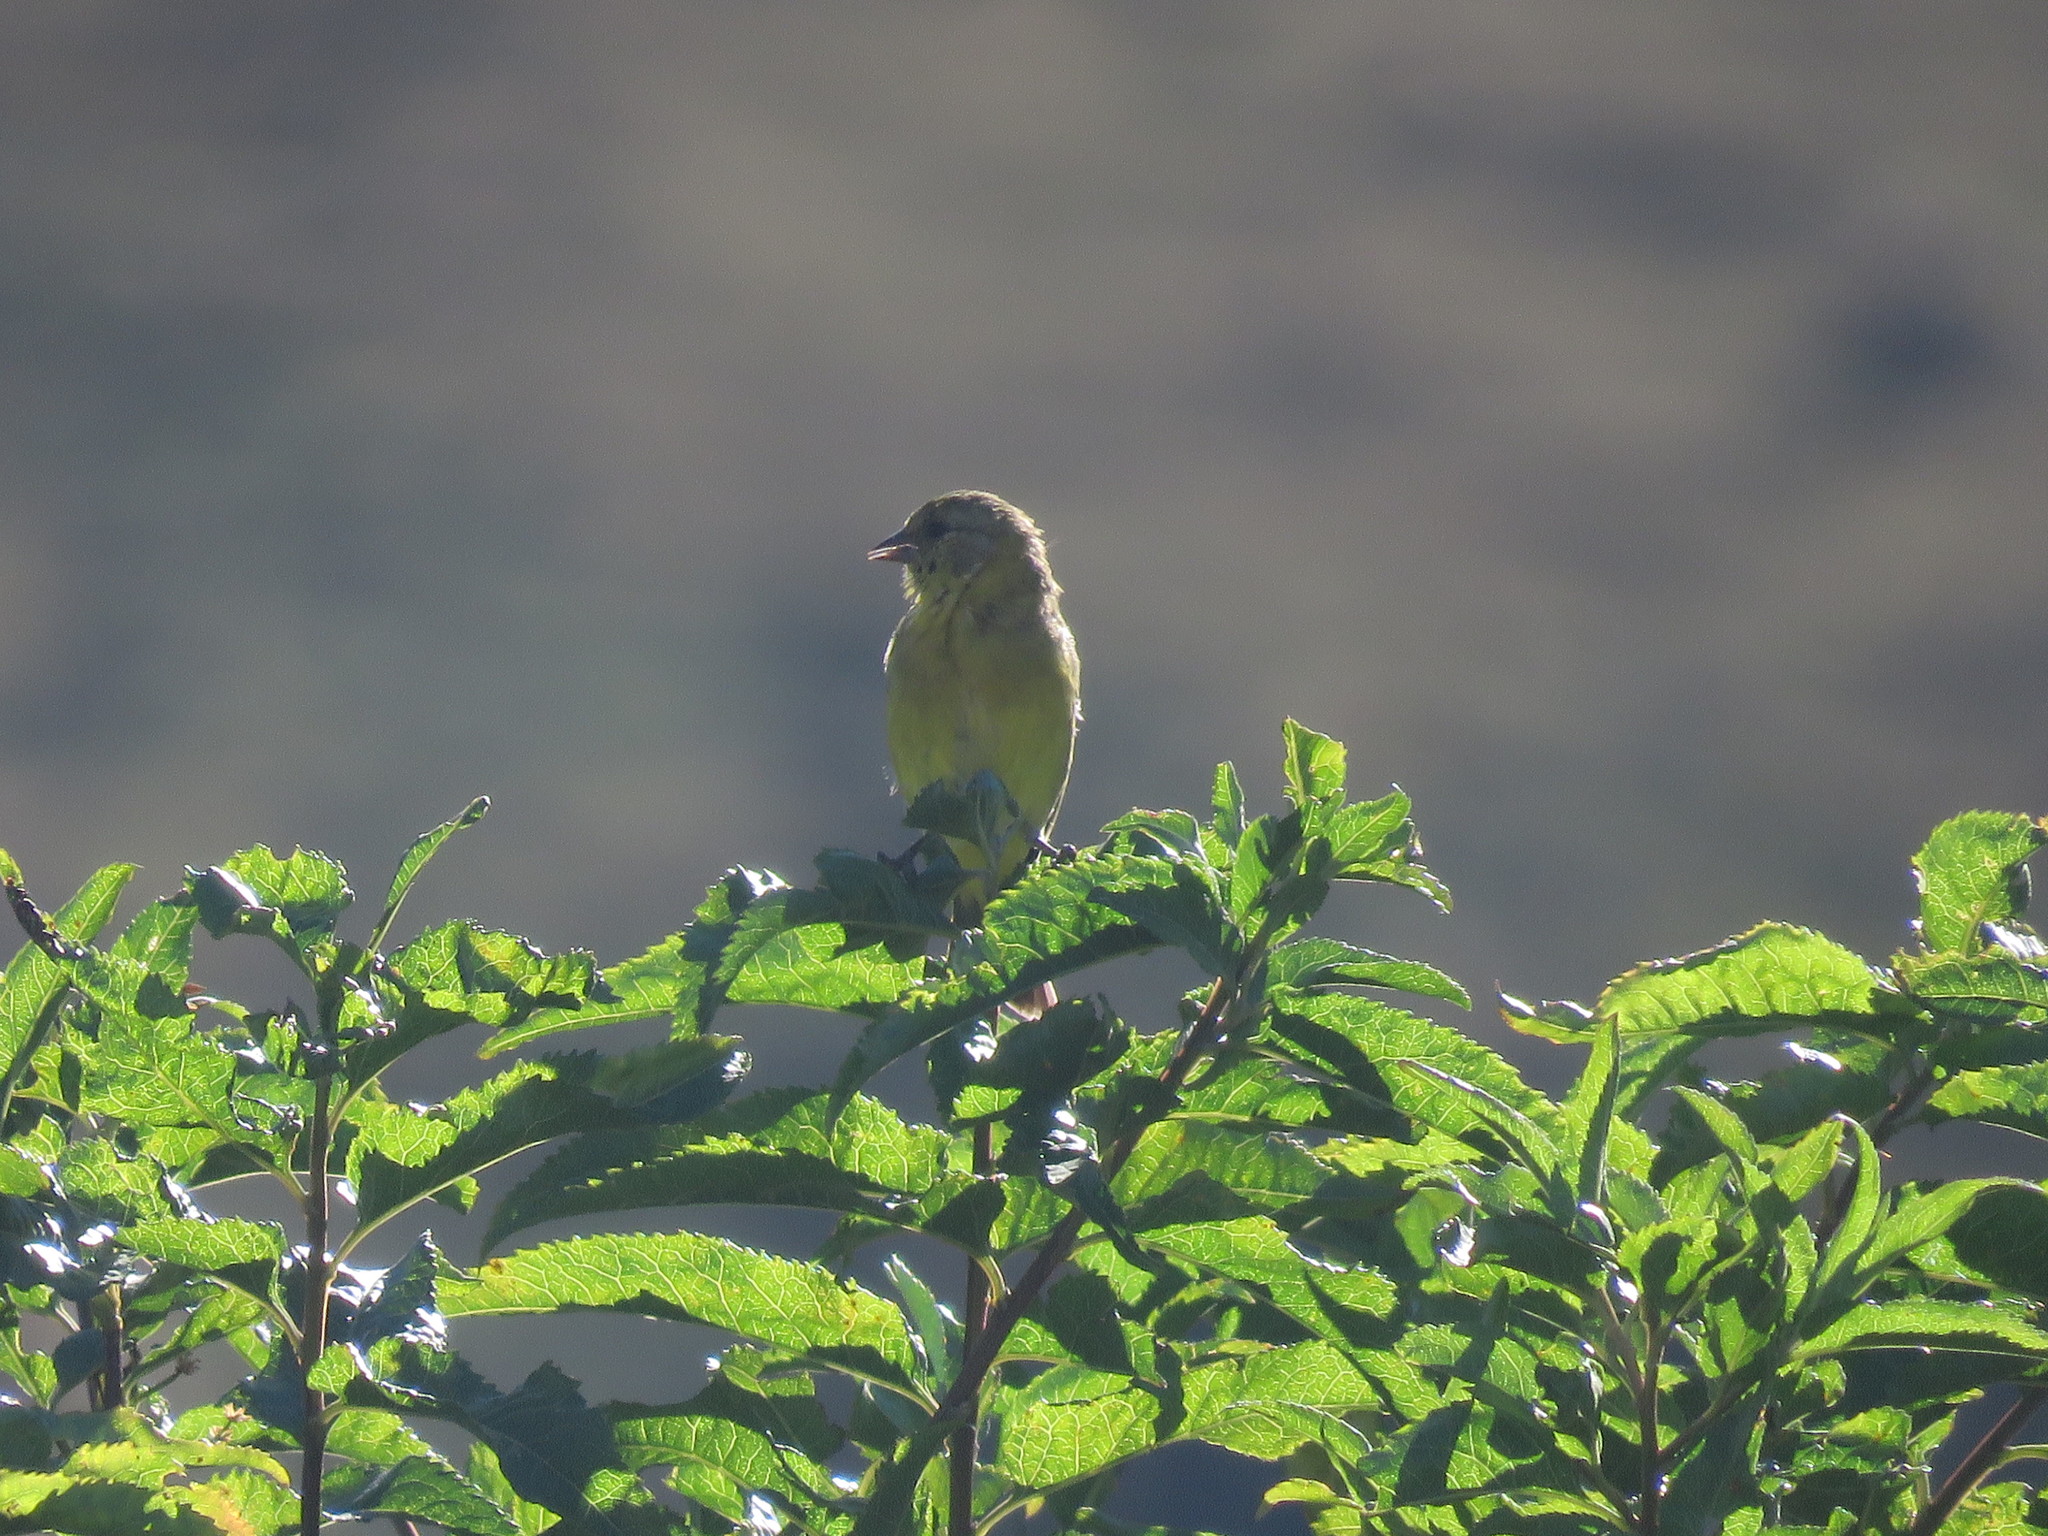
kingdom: Animalia
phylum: Chordata
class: Aves
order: Passeriformes
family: Fringillidae
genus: Spinus
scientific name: Spinus magellanicus
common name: Hooded siskin
